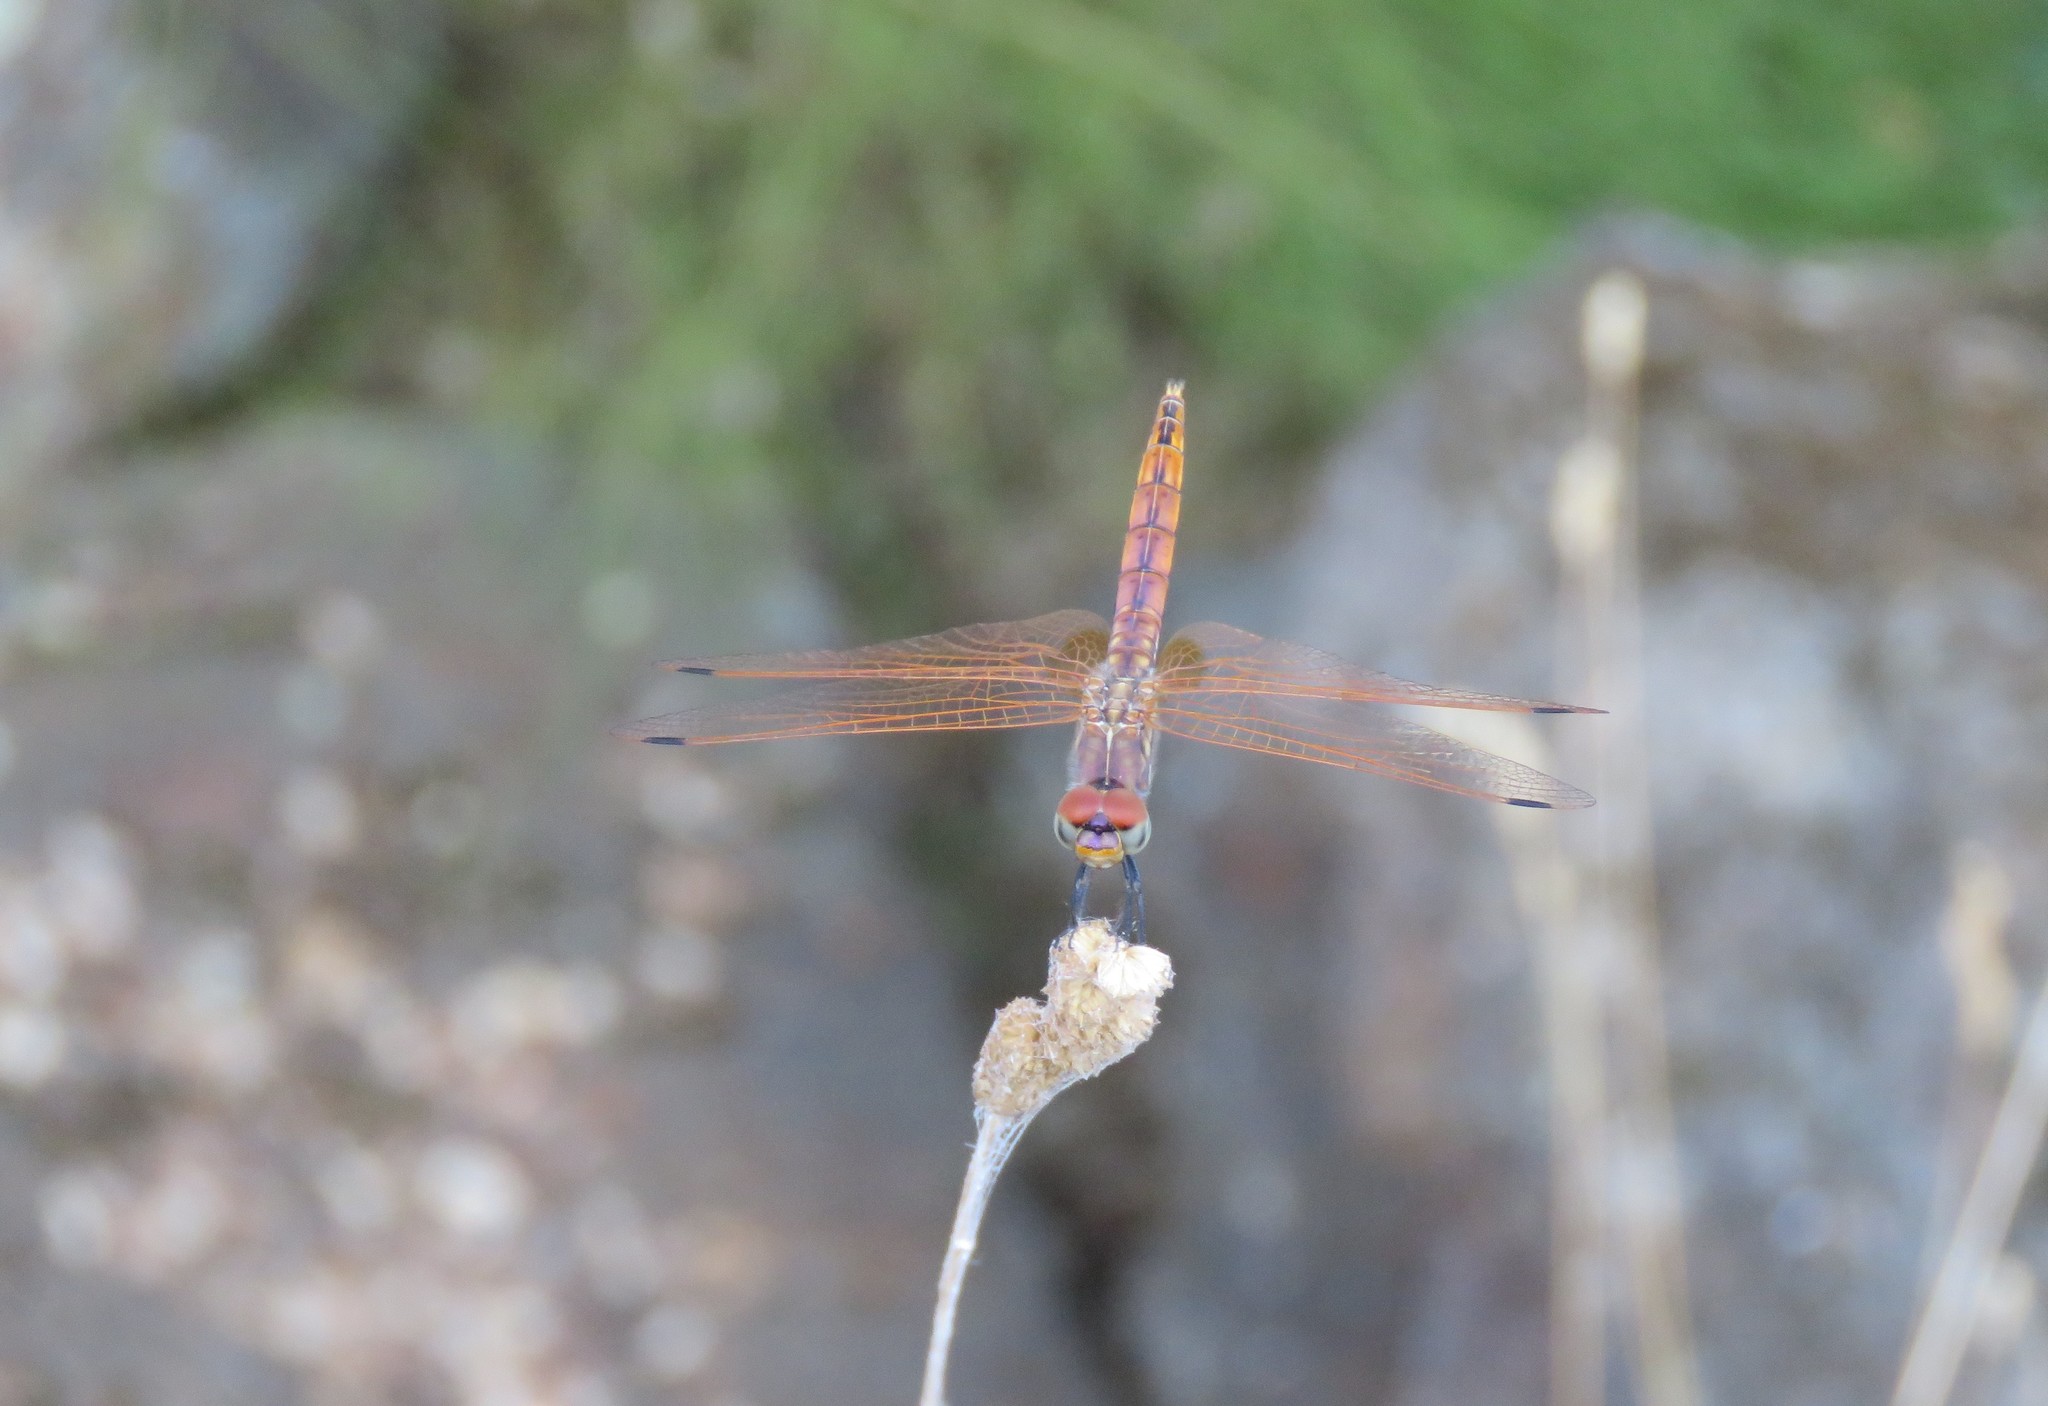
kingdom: Animalia
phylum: Arthropoda
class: Insecta
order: Odonata
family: Libellulidae
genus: Trithemis
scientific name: Trithemis annulata
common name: Violet dropwing
